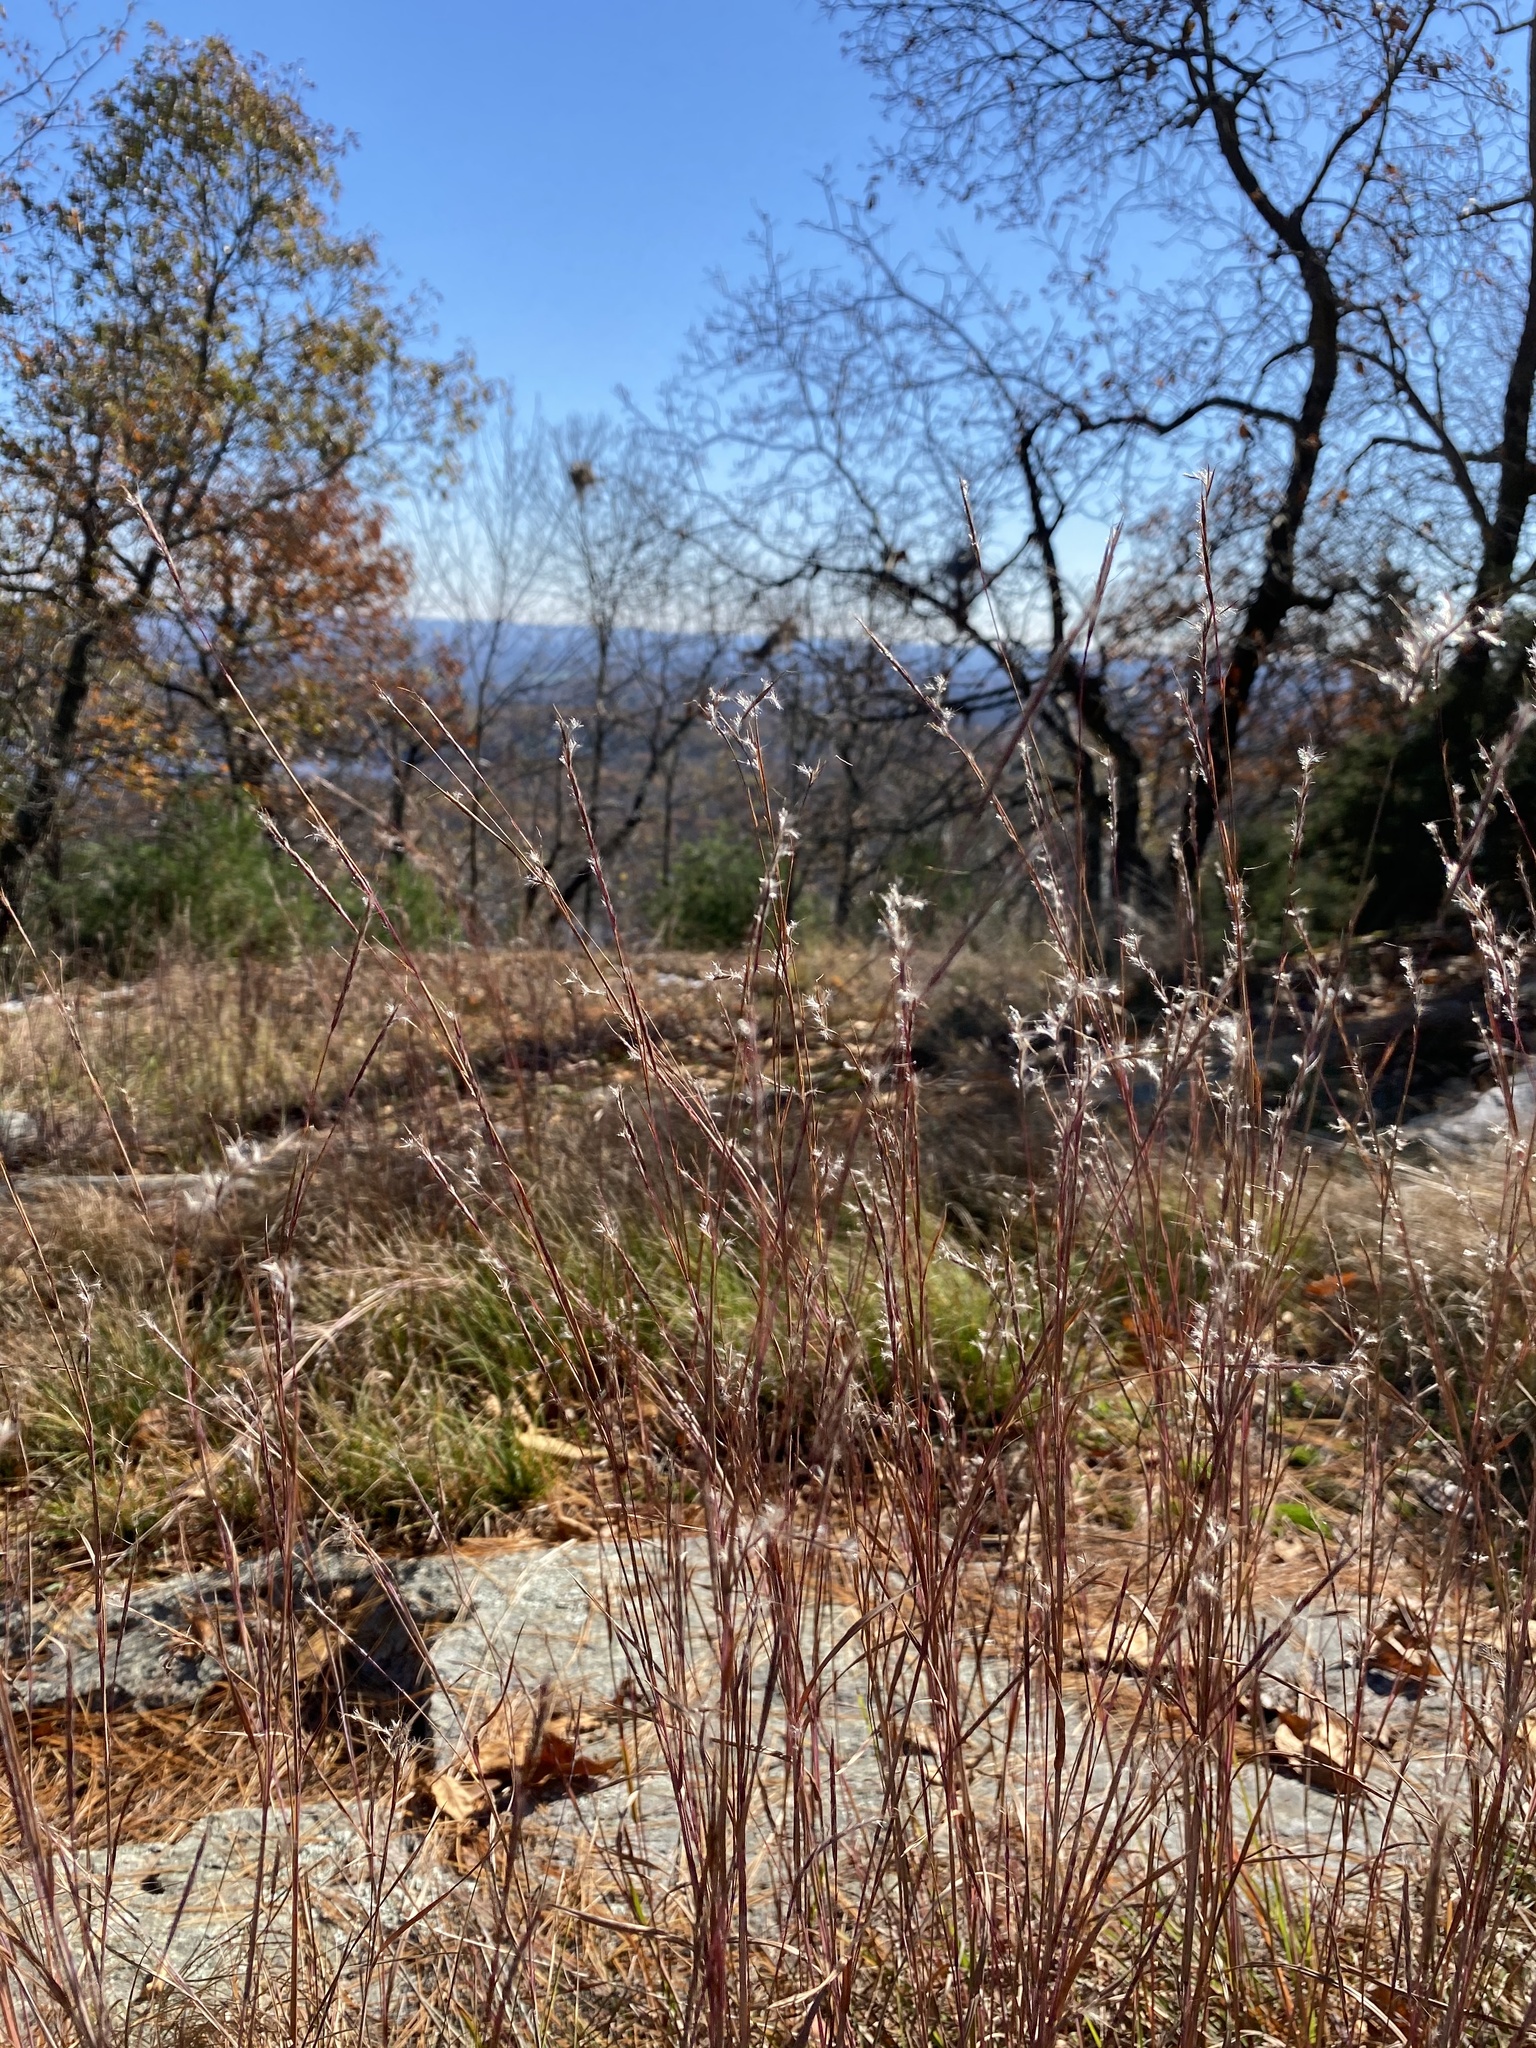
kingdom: Plantae
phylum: Tracheophyta
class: Liliopsida
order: Poales
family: Poaceae
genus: Schizachyrium
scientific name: Schizachyrium scoparium
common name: Little bluestem
